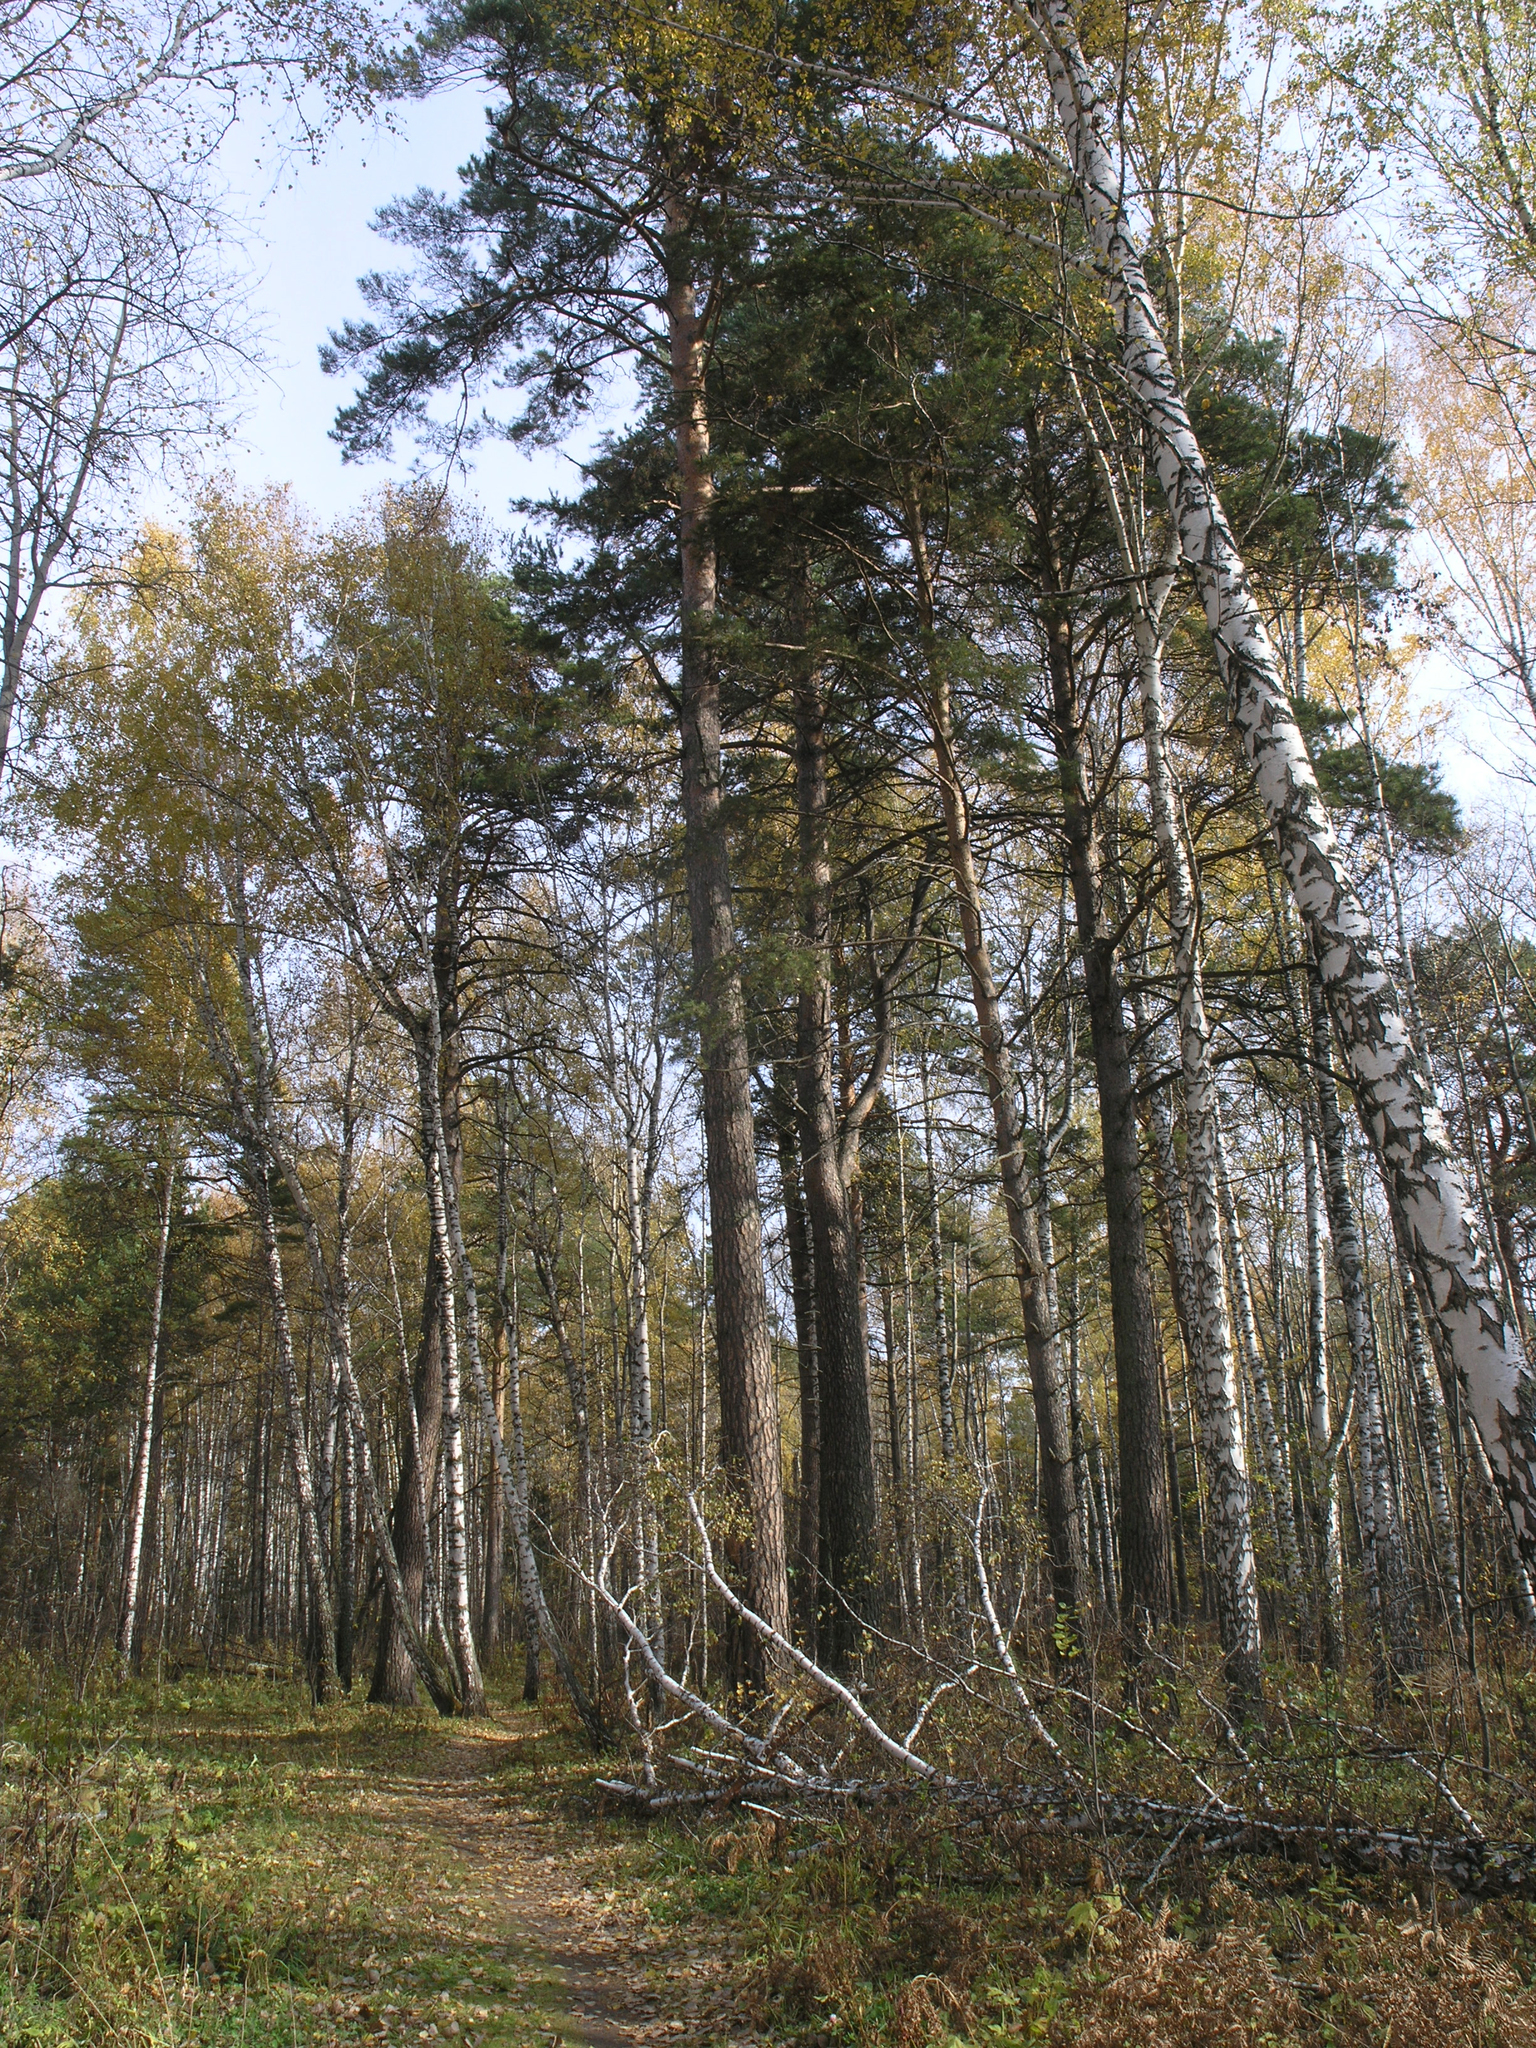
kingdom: Plantae
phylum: Tracheophyta
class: Pinopsida
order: Pinales
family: Pinaceae
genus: Pinus
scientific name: Pinus sylvestris
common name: Scots pine
